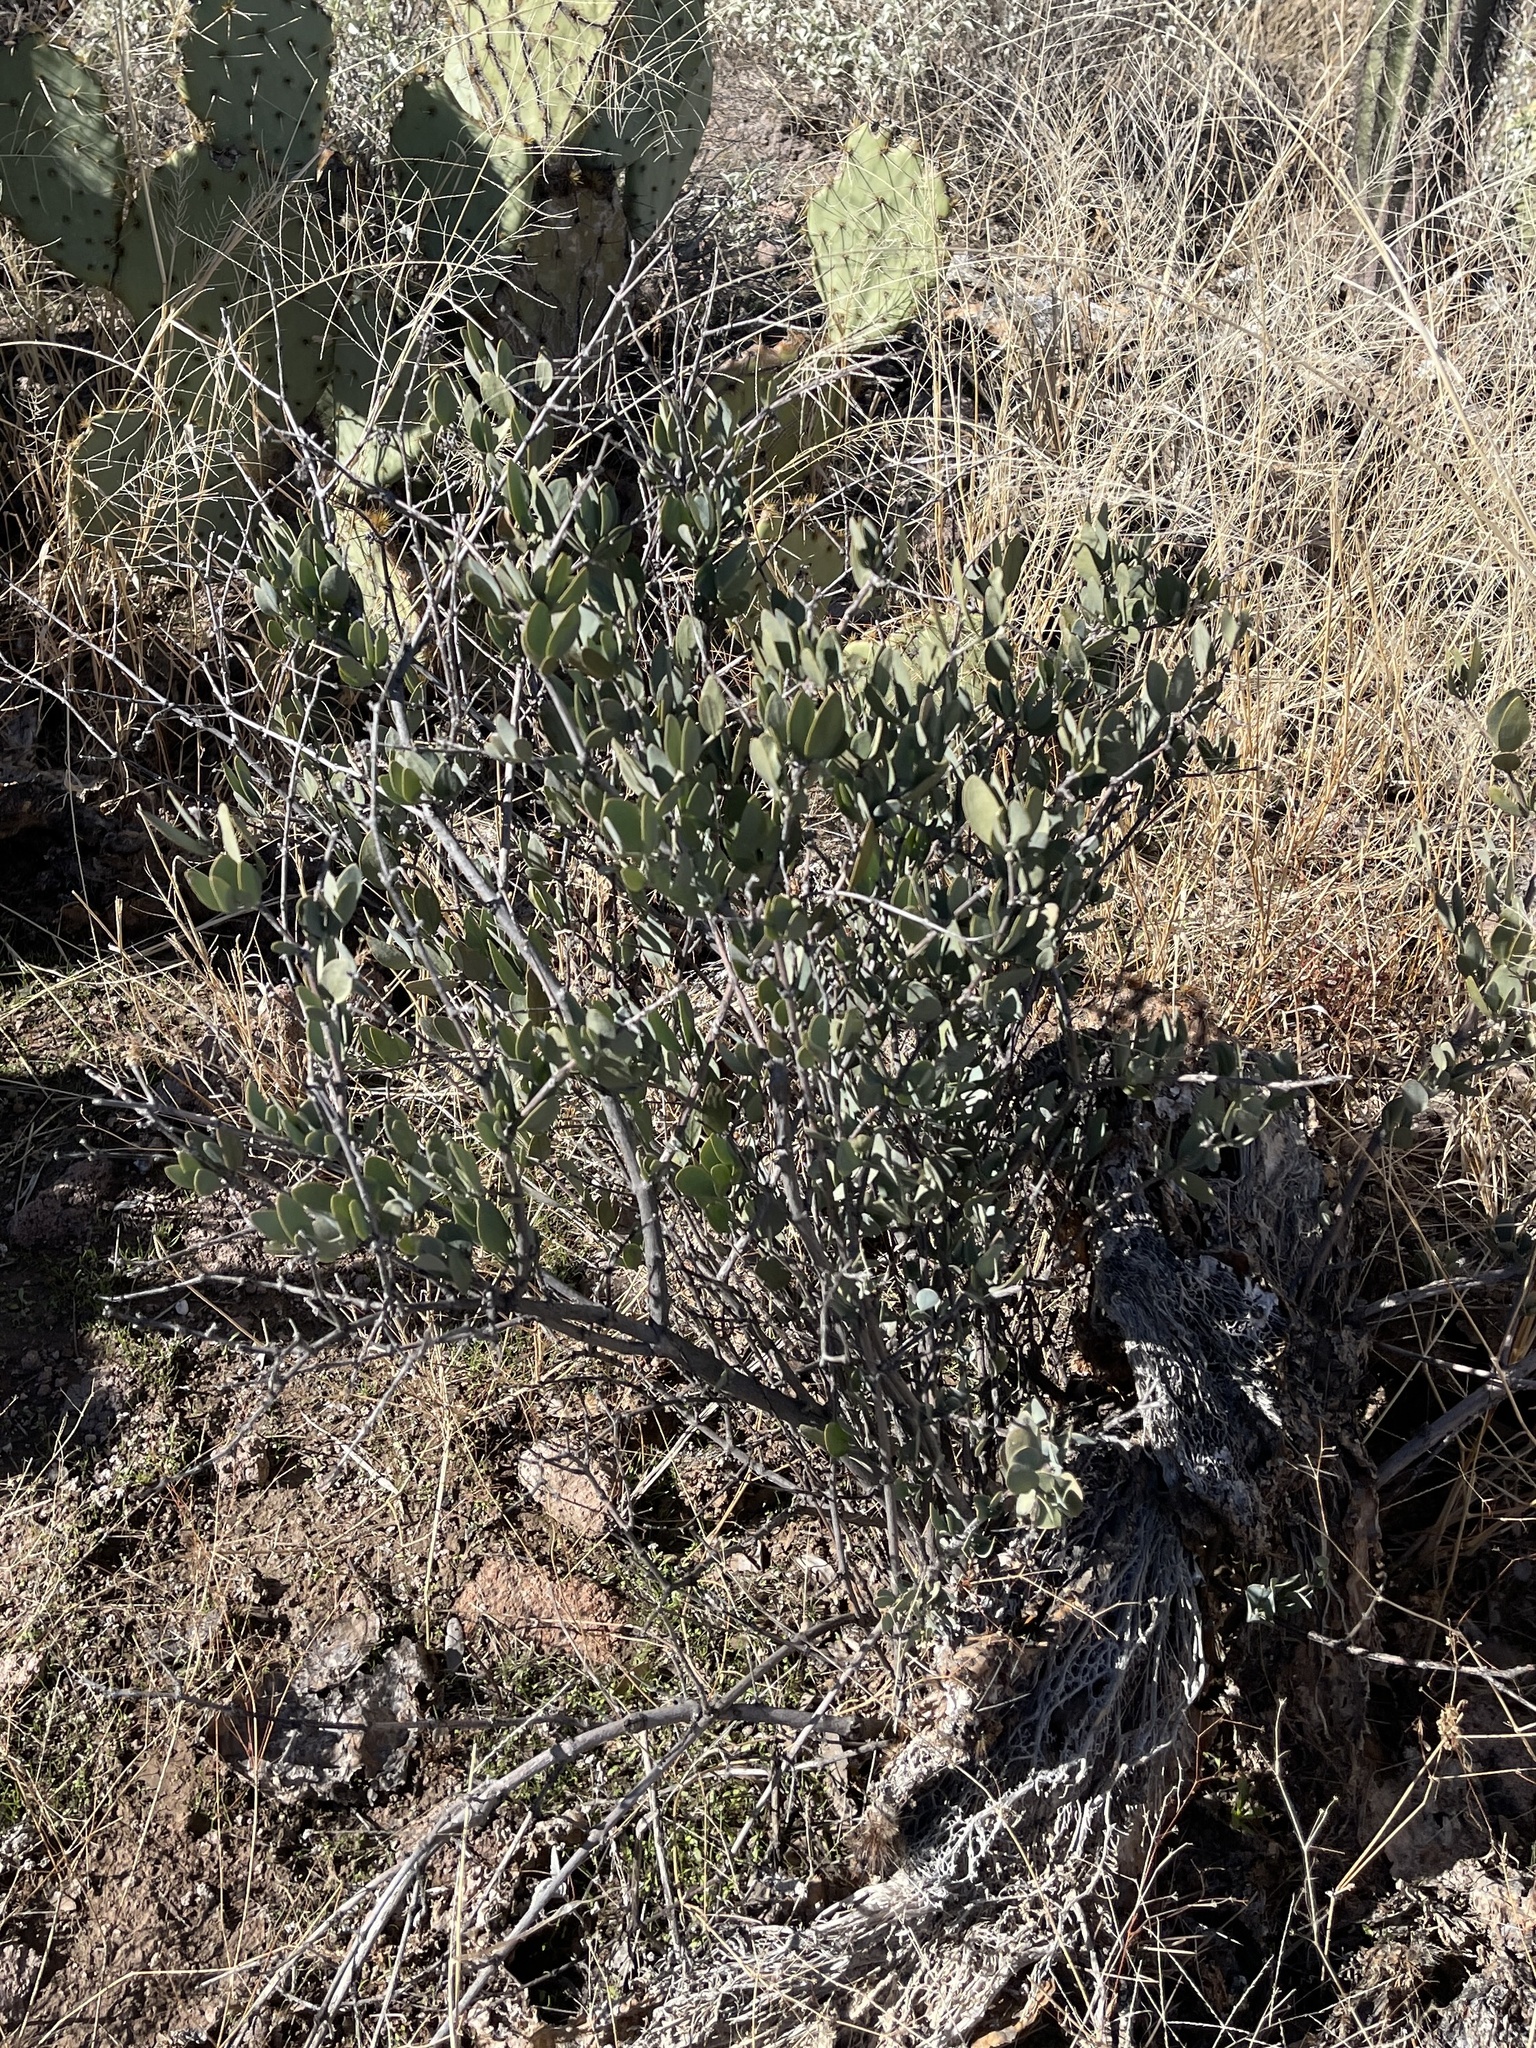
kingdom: Plantae
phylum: Tracheophyta
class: Magnoliopsida
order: Caryophyllales
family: Simmondsiaceae
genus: Simmondsia
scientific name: Simmondsia chinensis
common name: Jojoba
